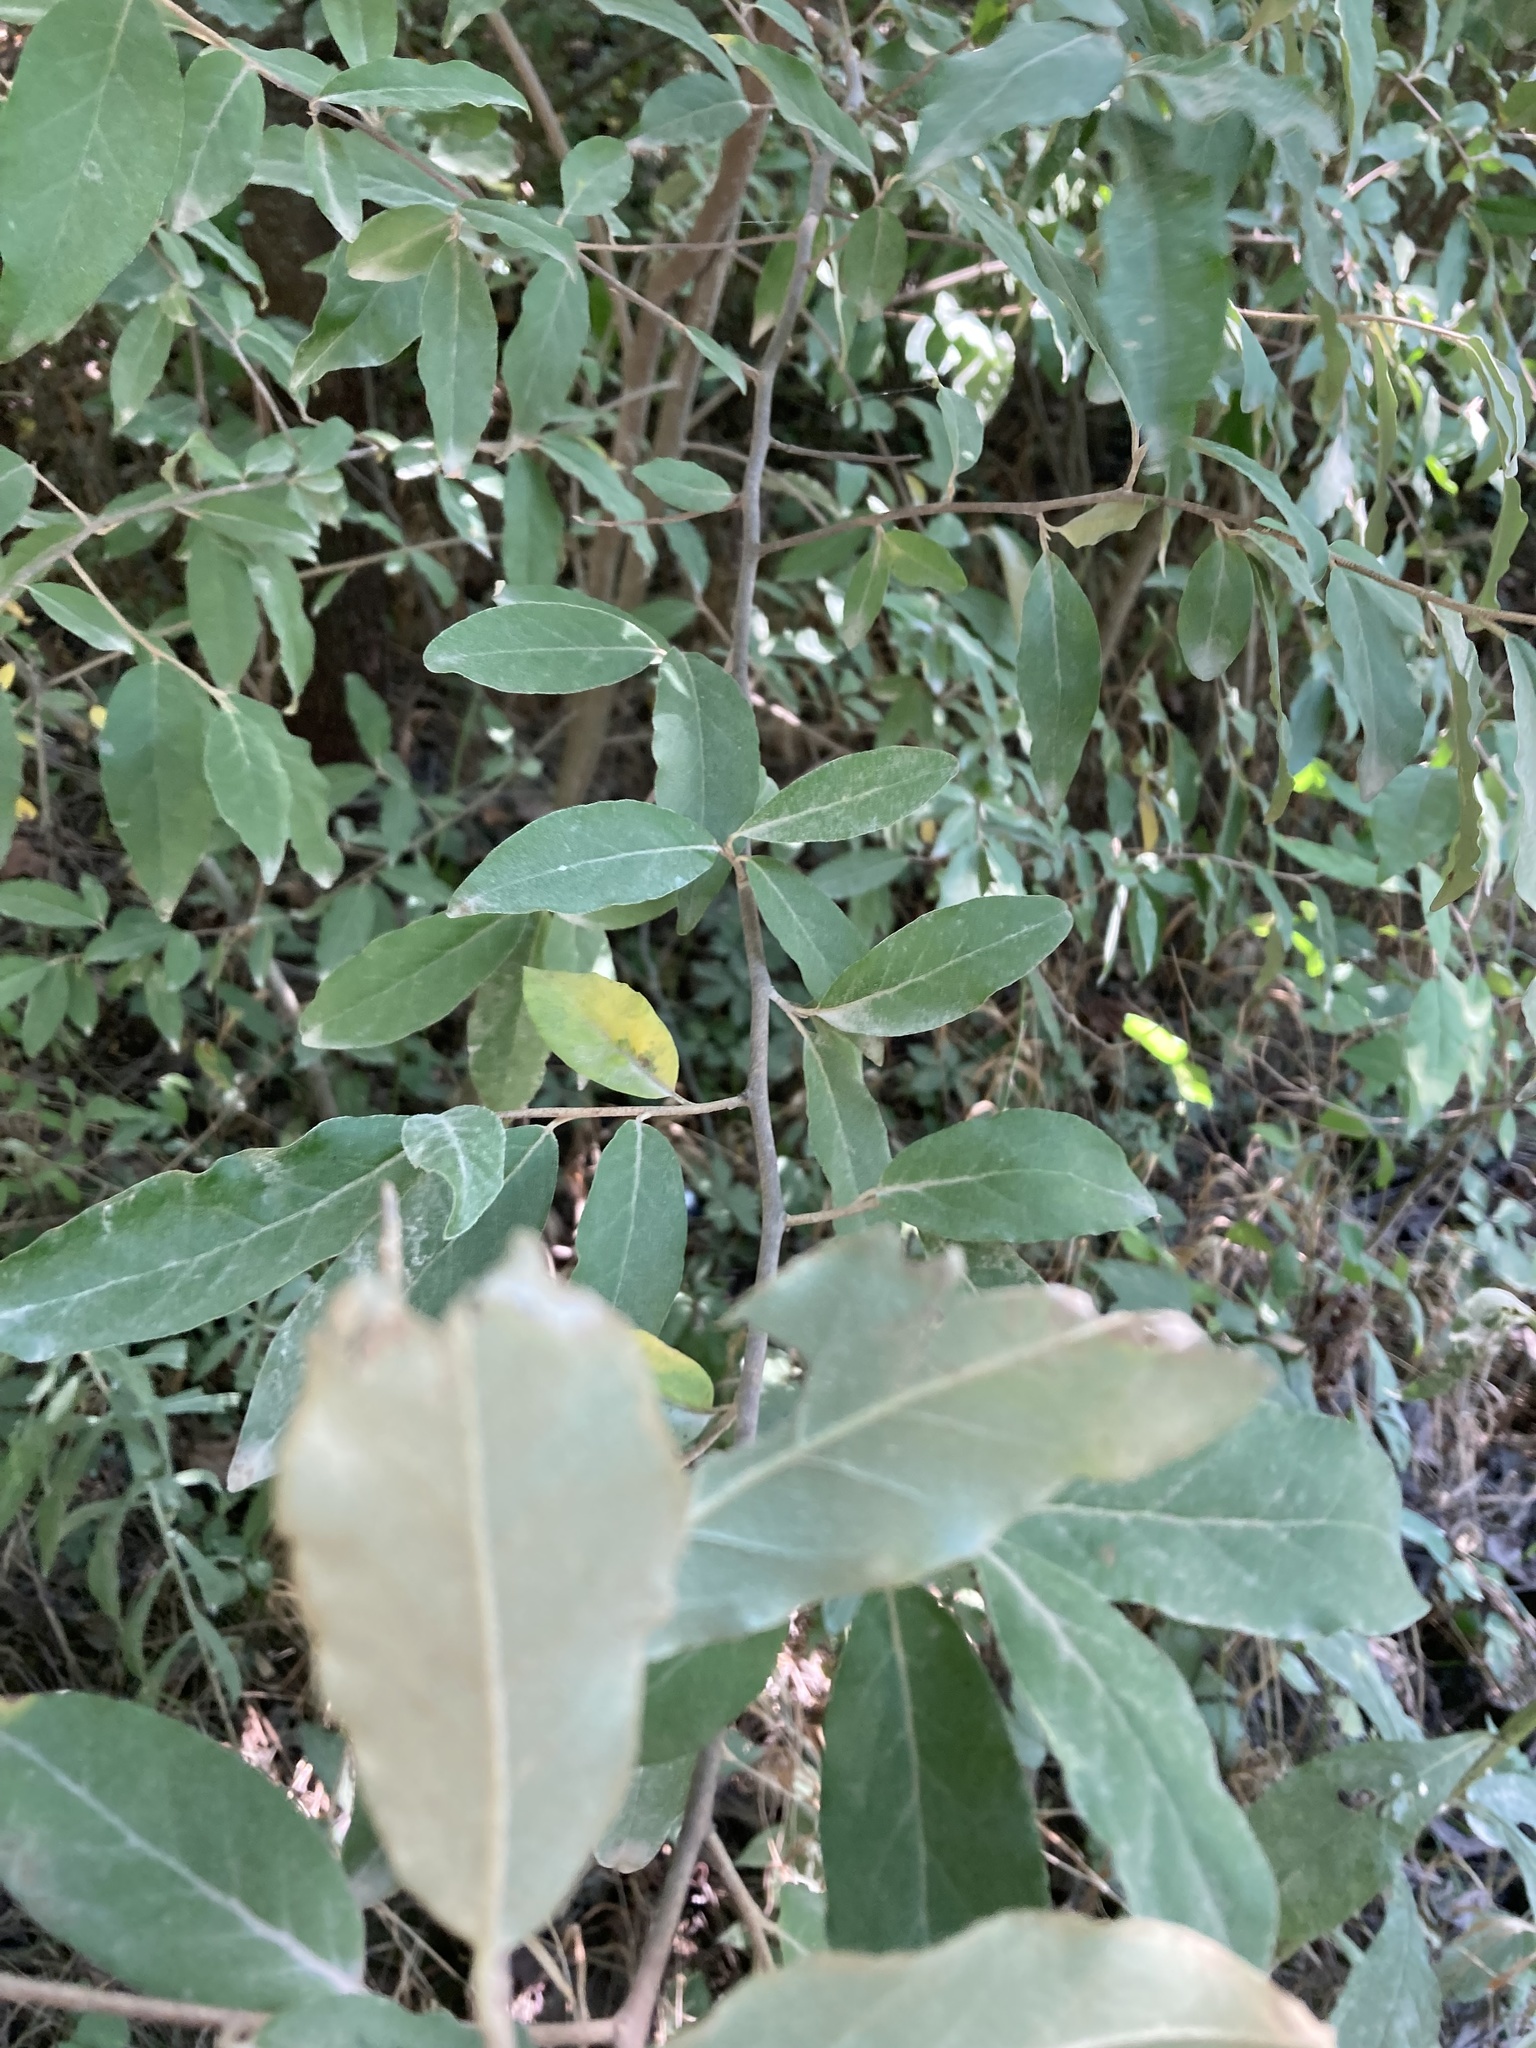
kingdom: Plantae
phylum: Tracheophyta
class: Magnoliopsida
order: Rosales
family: Elaeagnaceae
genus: Elaeagnus
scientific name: Elaeagnus umbellata
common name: Autumn olive
